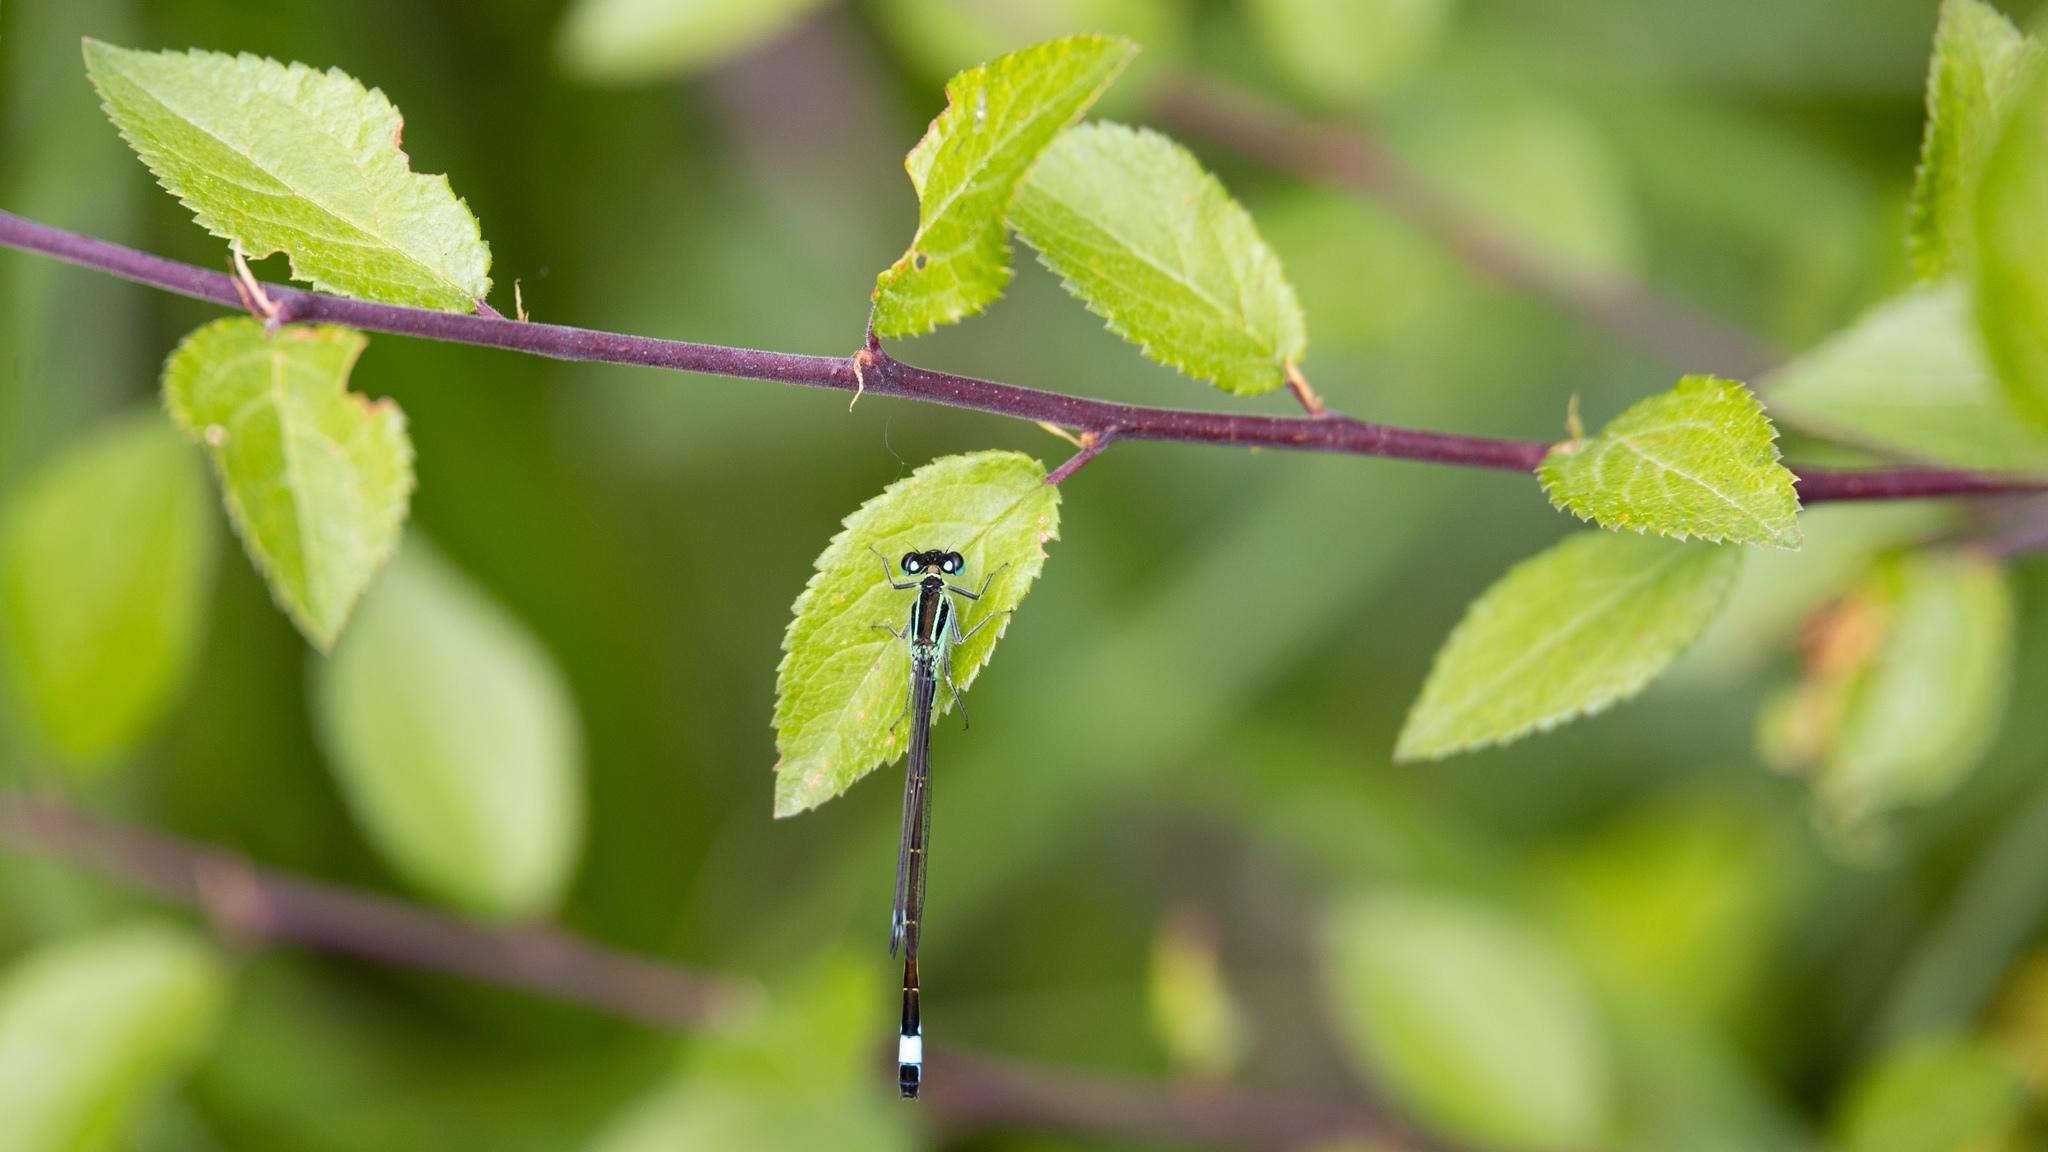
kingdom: Animalia
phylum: Arthropoda
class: Insecta
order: Odonata
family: Coenagrionidae
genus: Ischnura
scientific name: Ischnura elegans
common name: Blue-tailed damselfly
